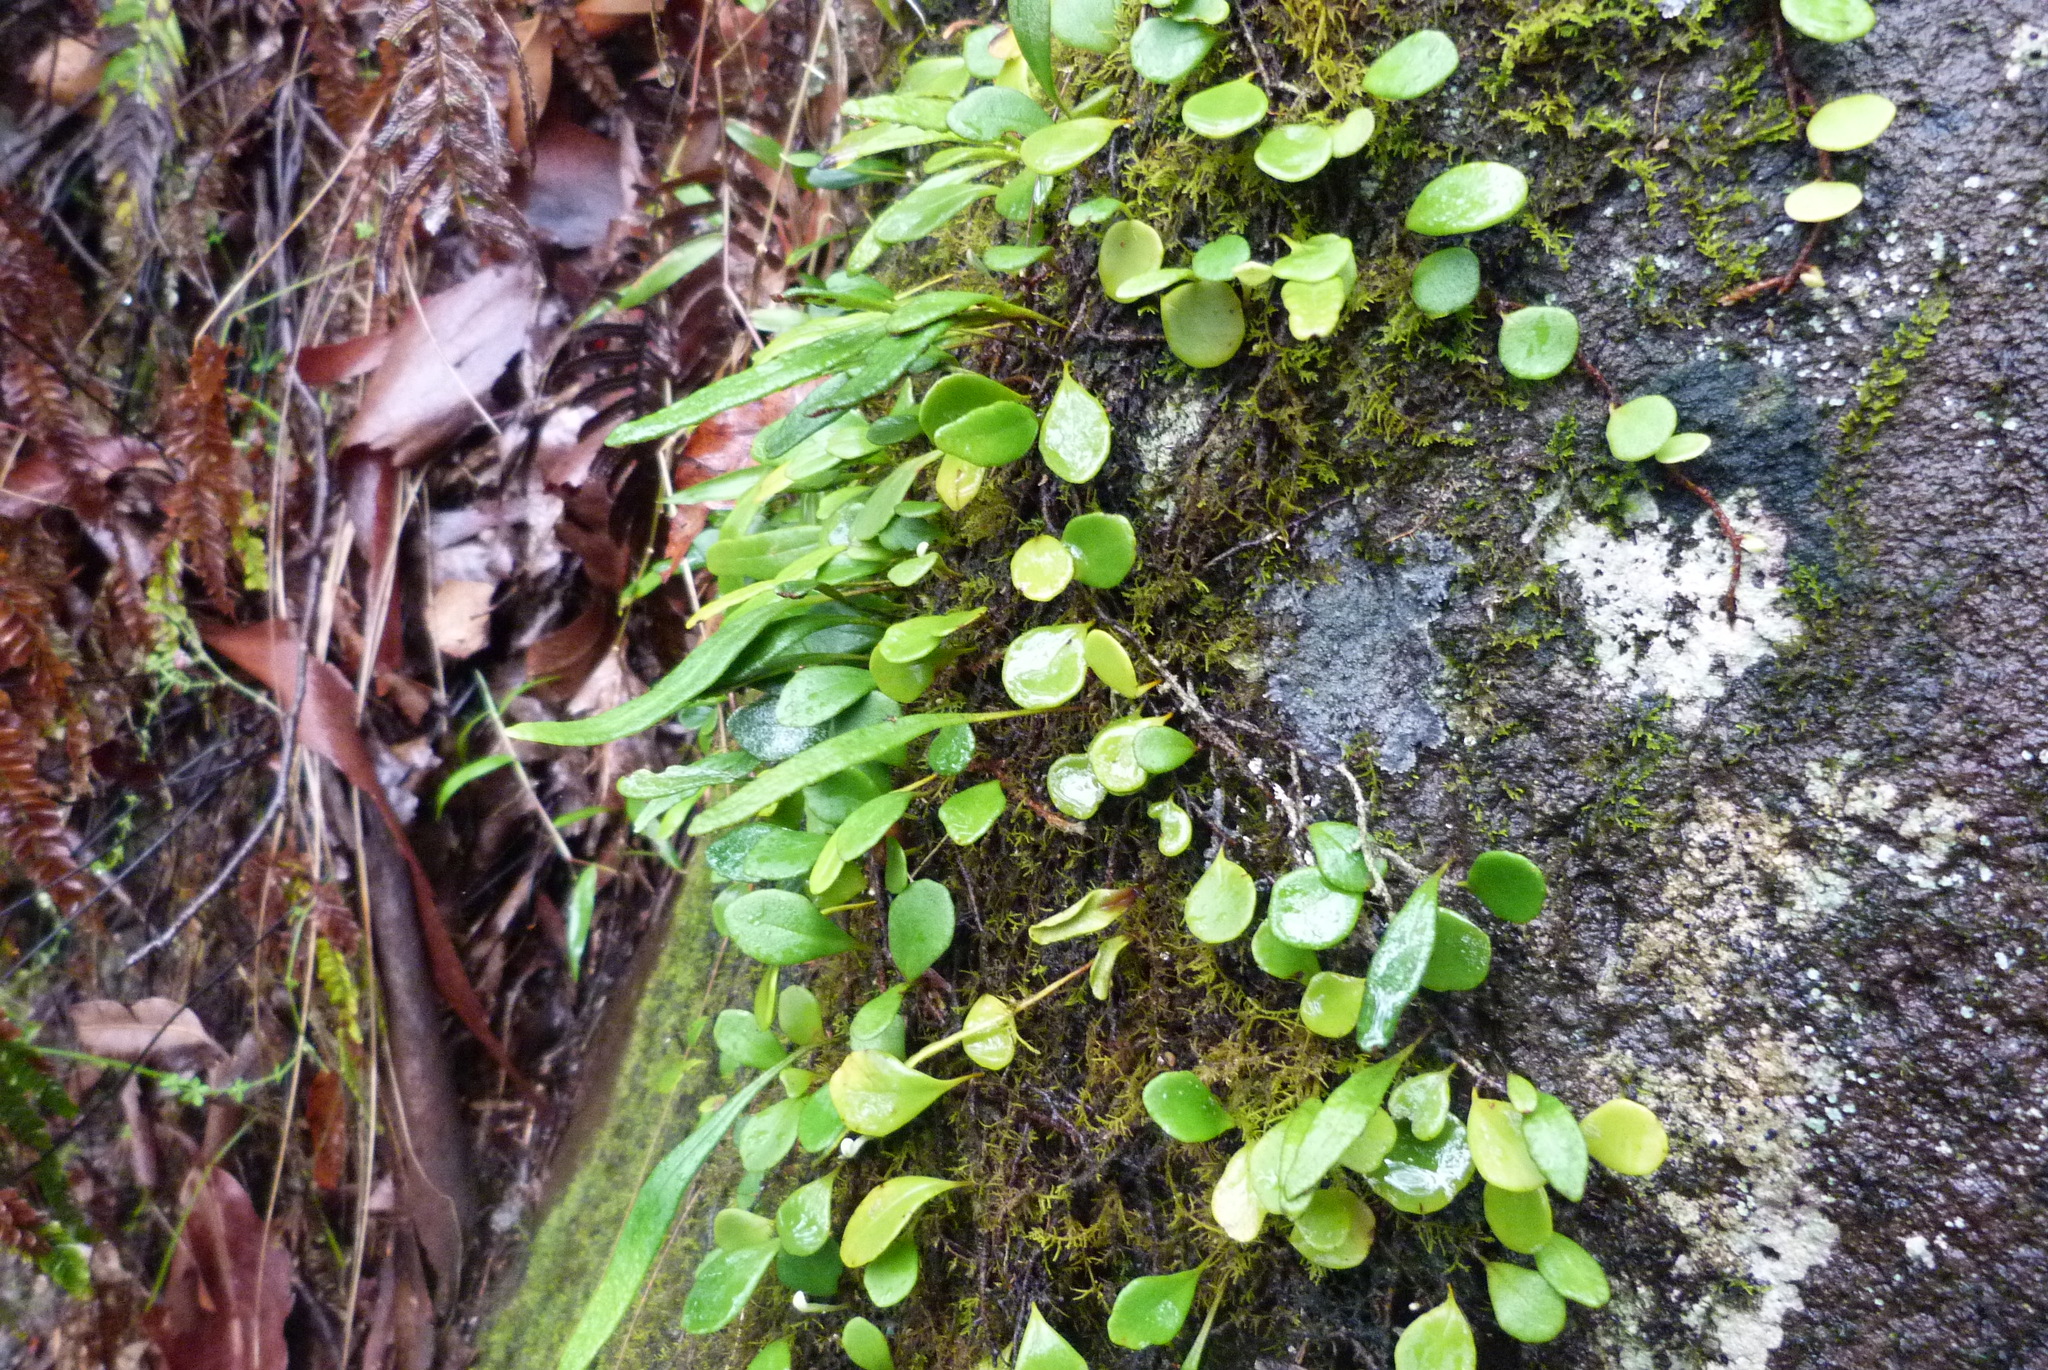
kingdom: Plantae
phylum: Tracheophyta
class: Polypodiopsida
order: Polypodiales
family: Polypodiaceae
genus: Pyrrosia
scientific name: Pyrrosia rupestris
